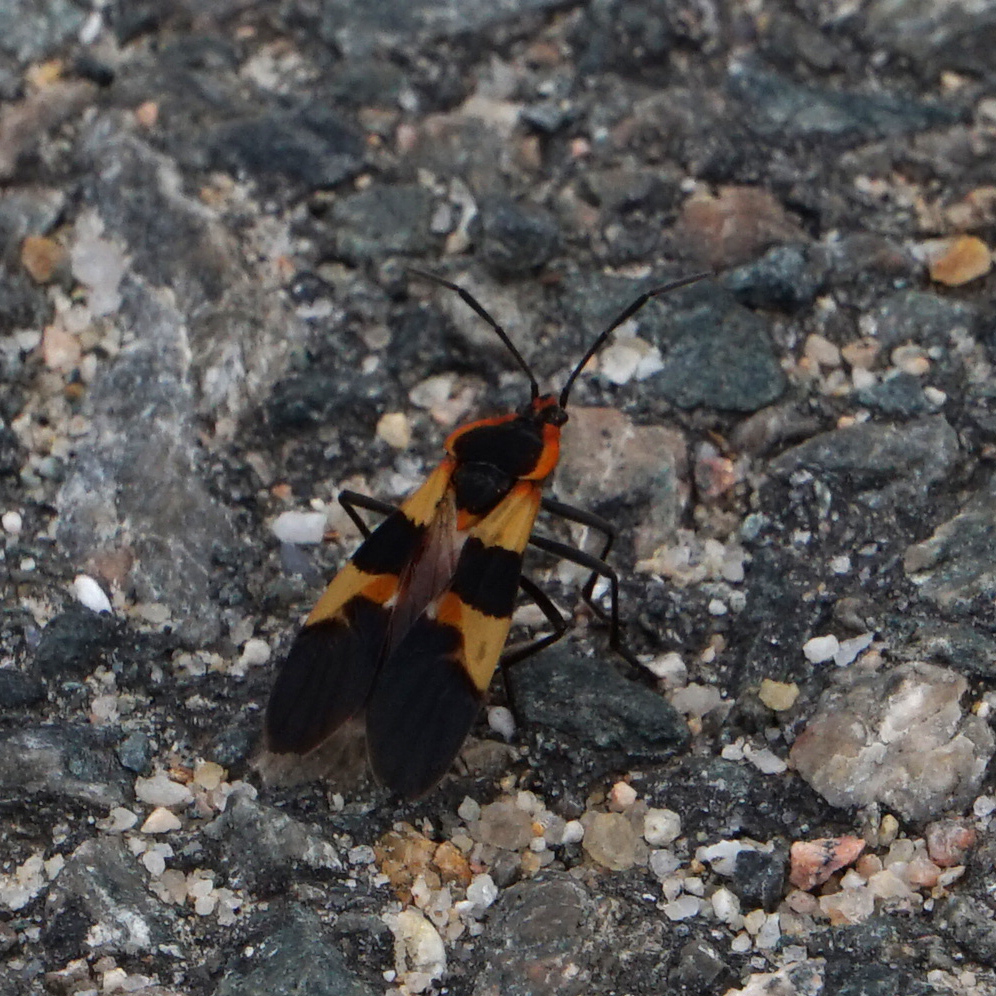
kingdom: Animalia
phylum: Arthropoda
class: Insecta
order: Hemiptera
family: Lygaeidae
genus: Oncopeltus
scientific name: Oncopeltus fasciatus
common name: Large milkweed bug
